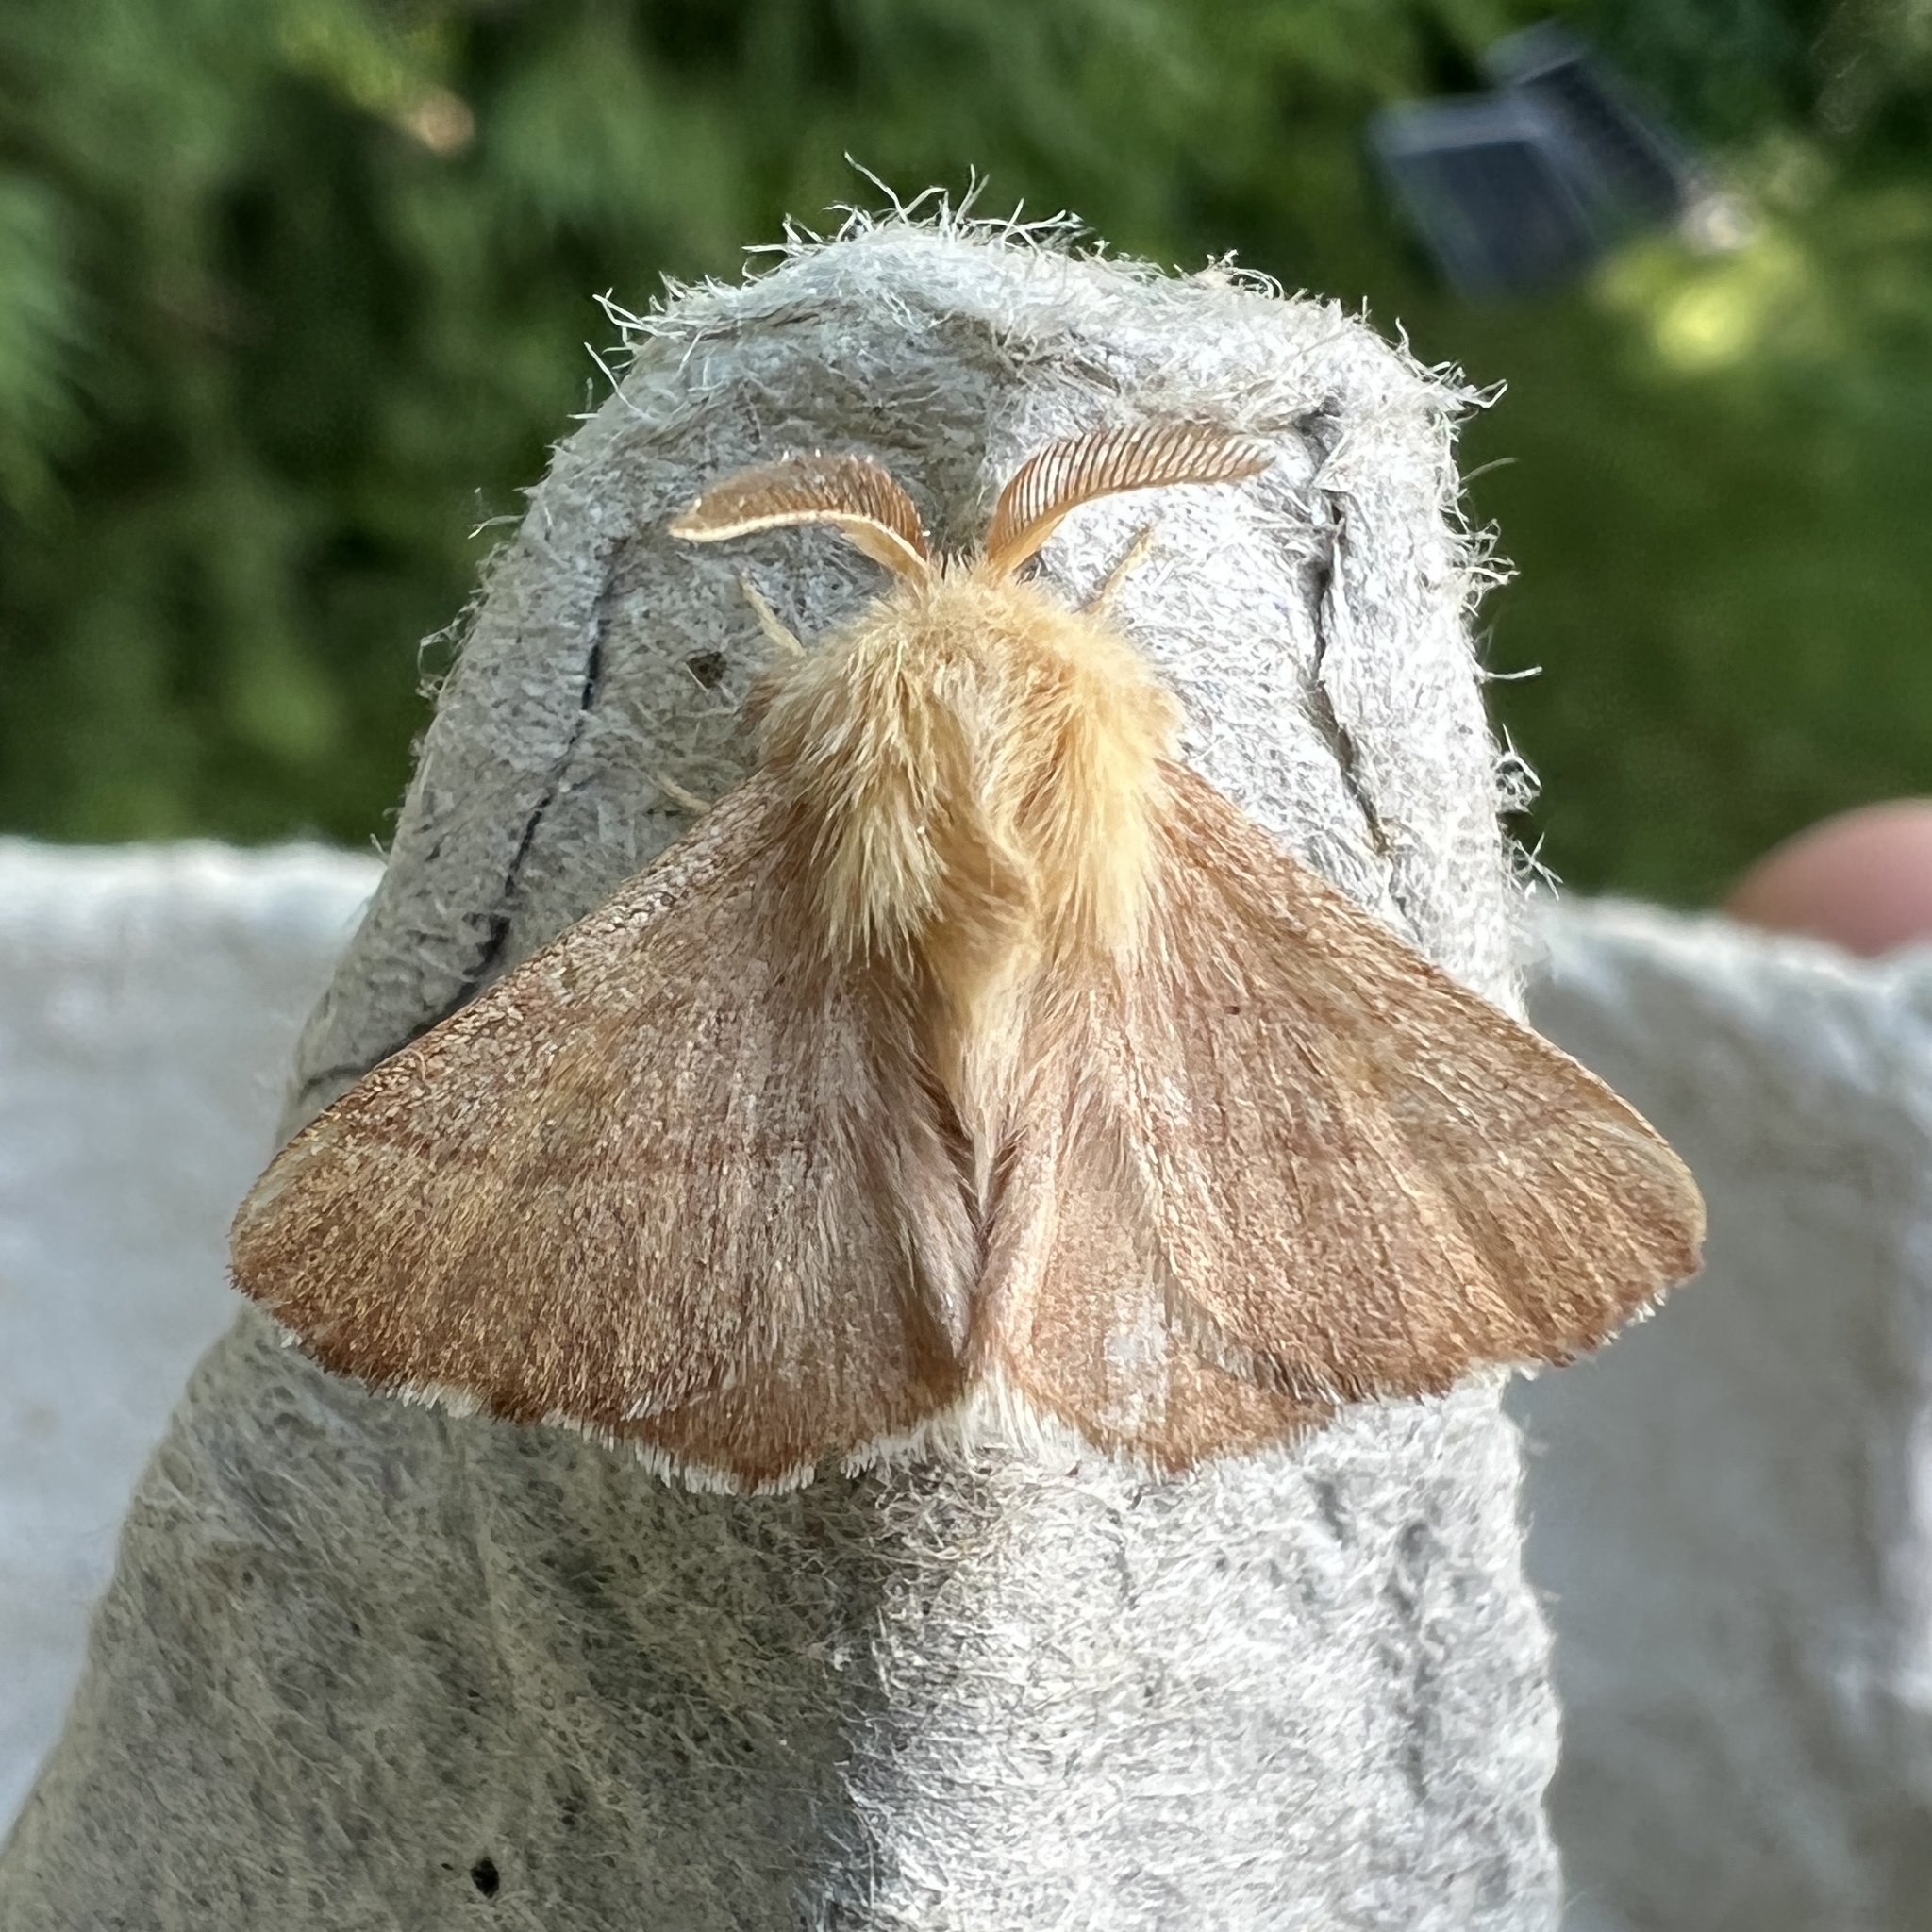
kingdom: Animalia
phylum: Arthropoda
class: Insecta
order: Lepidoptera
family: Lasiocampidae
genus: Malacosoma
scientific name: Malacosoma disstria
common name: Forest tent caterpillar
